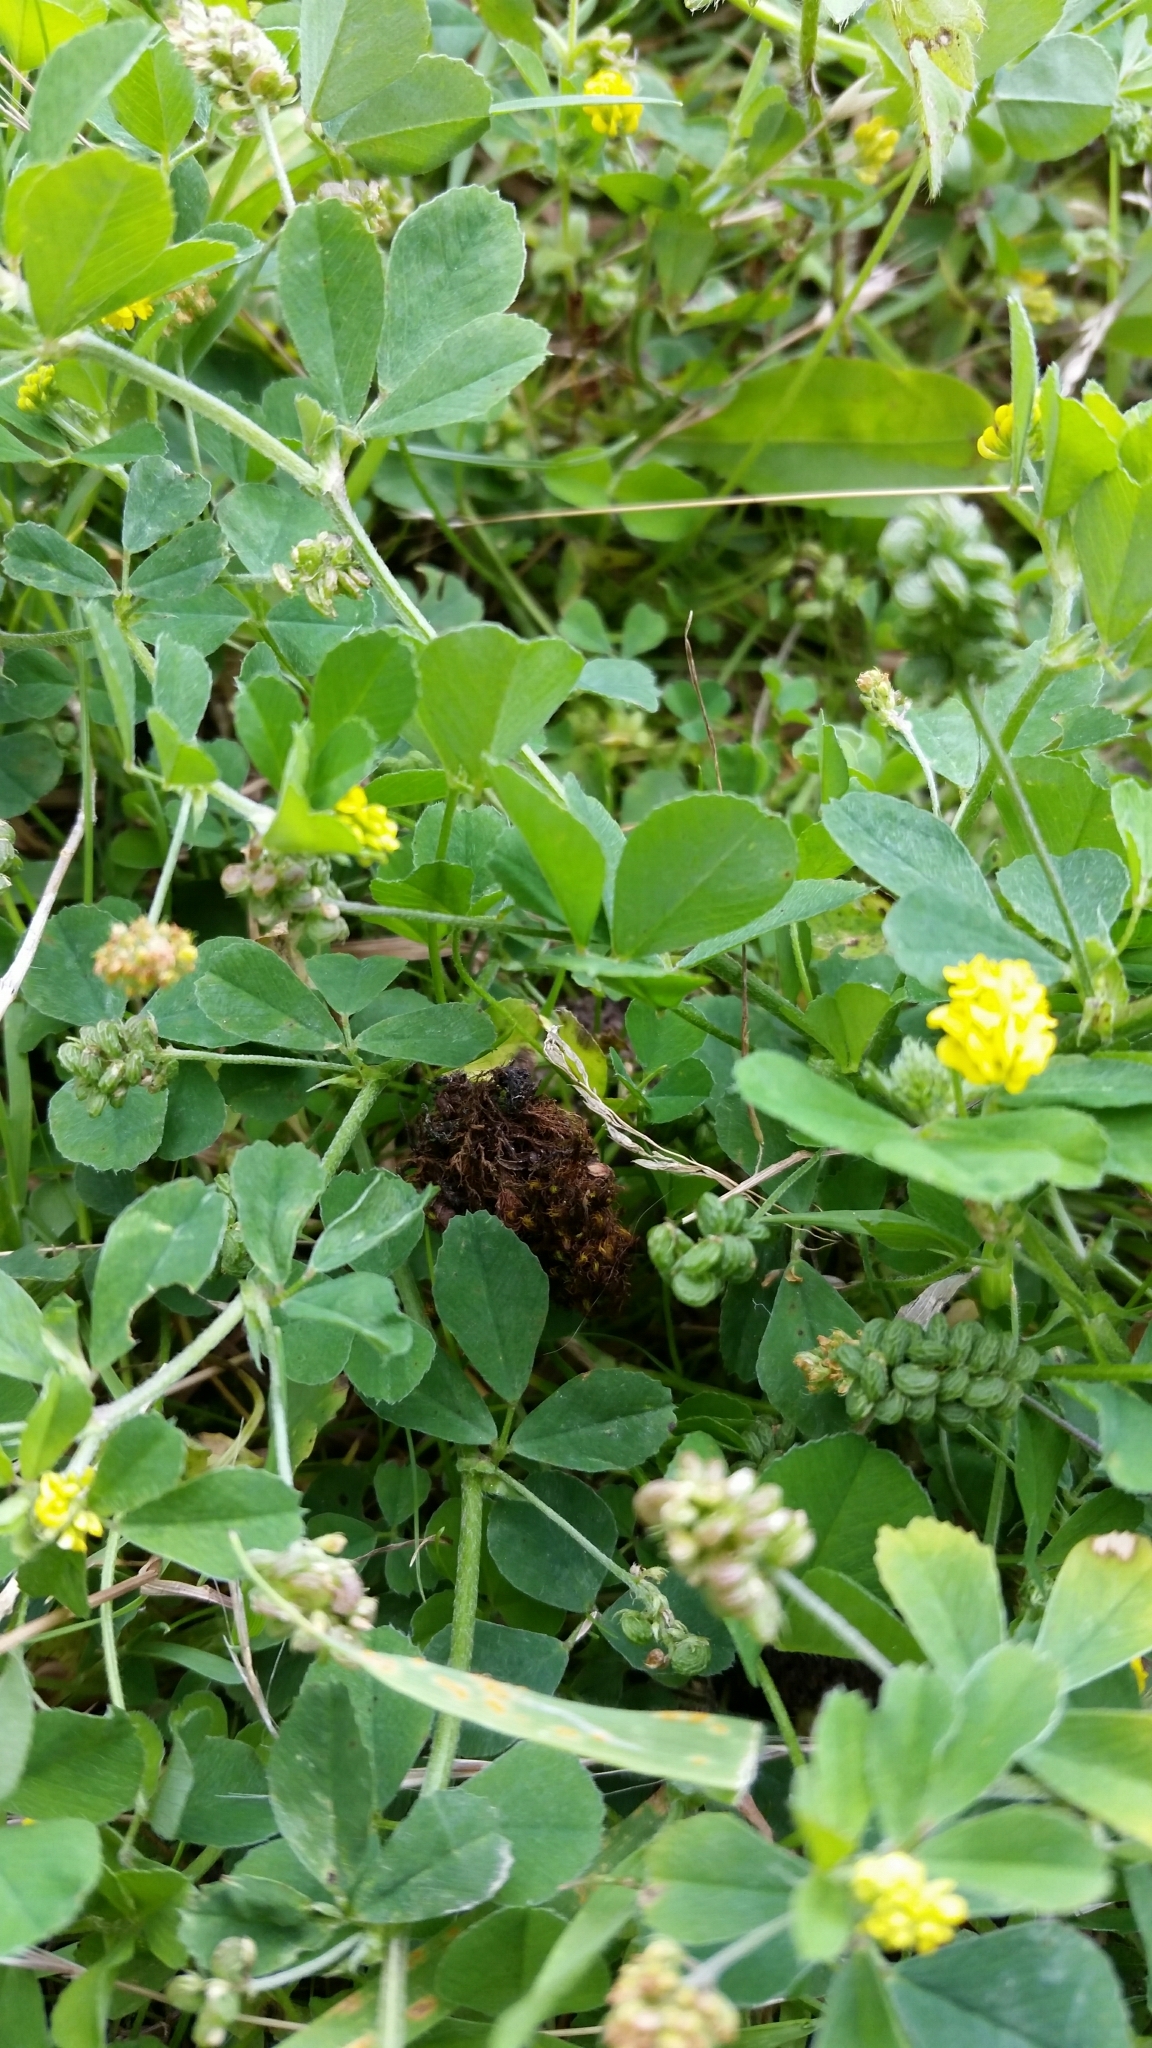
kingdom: Plantae
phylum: Tracheophyta
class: Magnoliopsida
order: Fabales
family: Fabaceae
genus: Medicago
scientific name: Medicago lupulina
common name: Black medick
